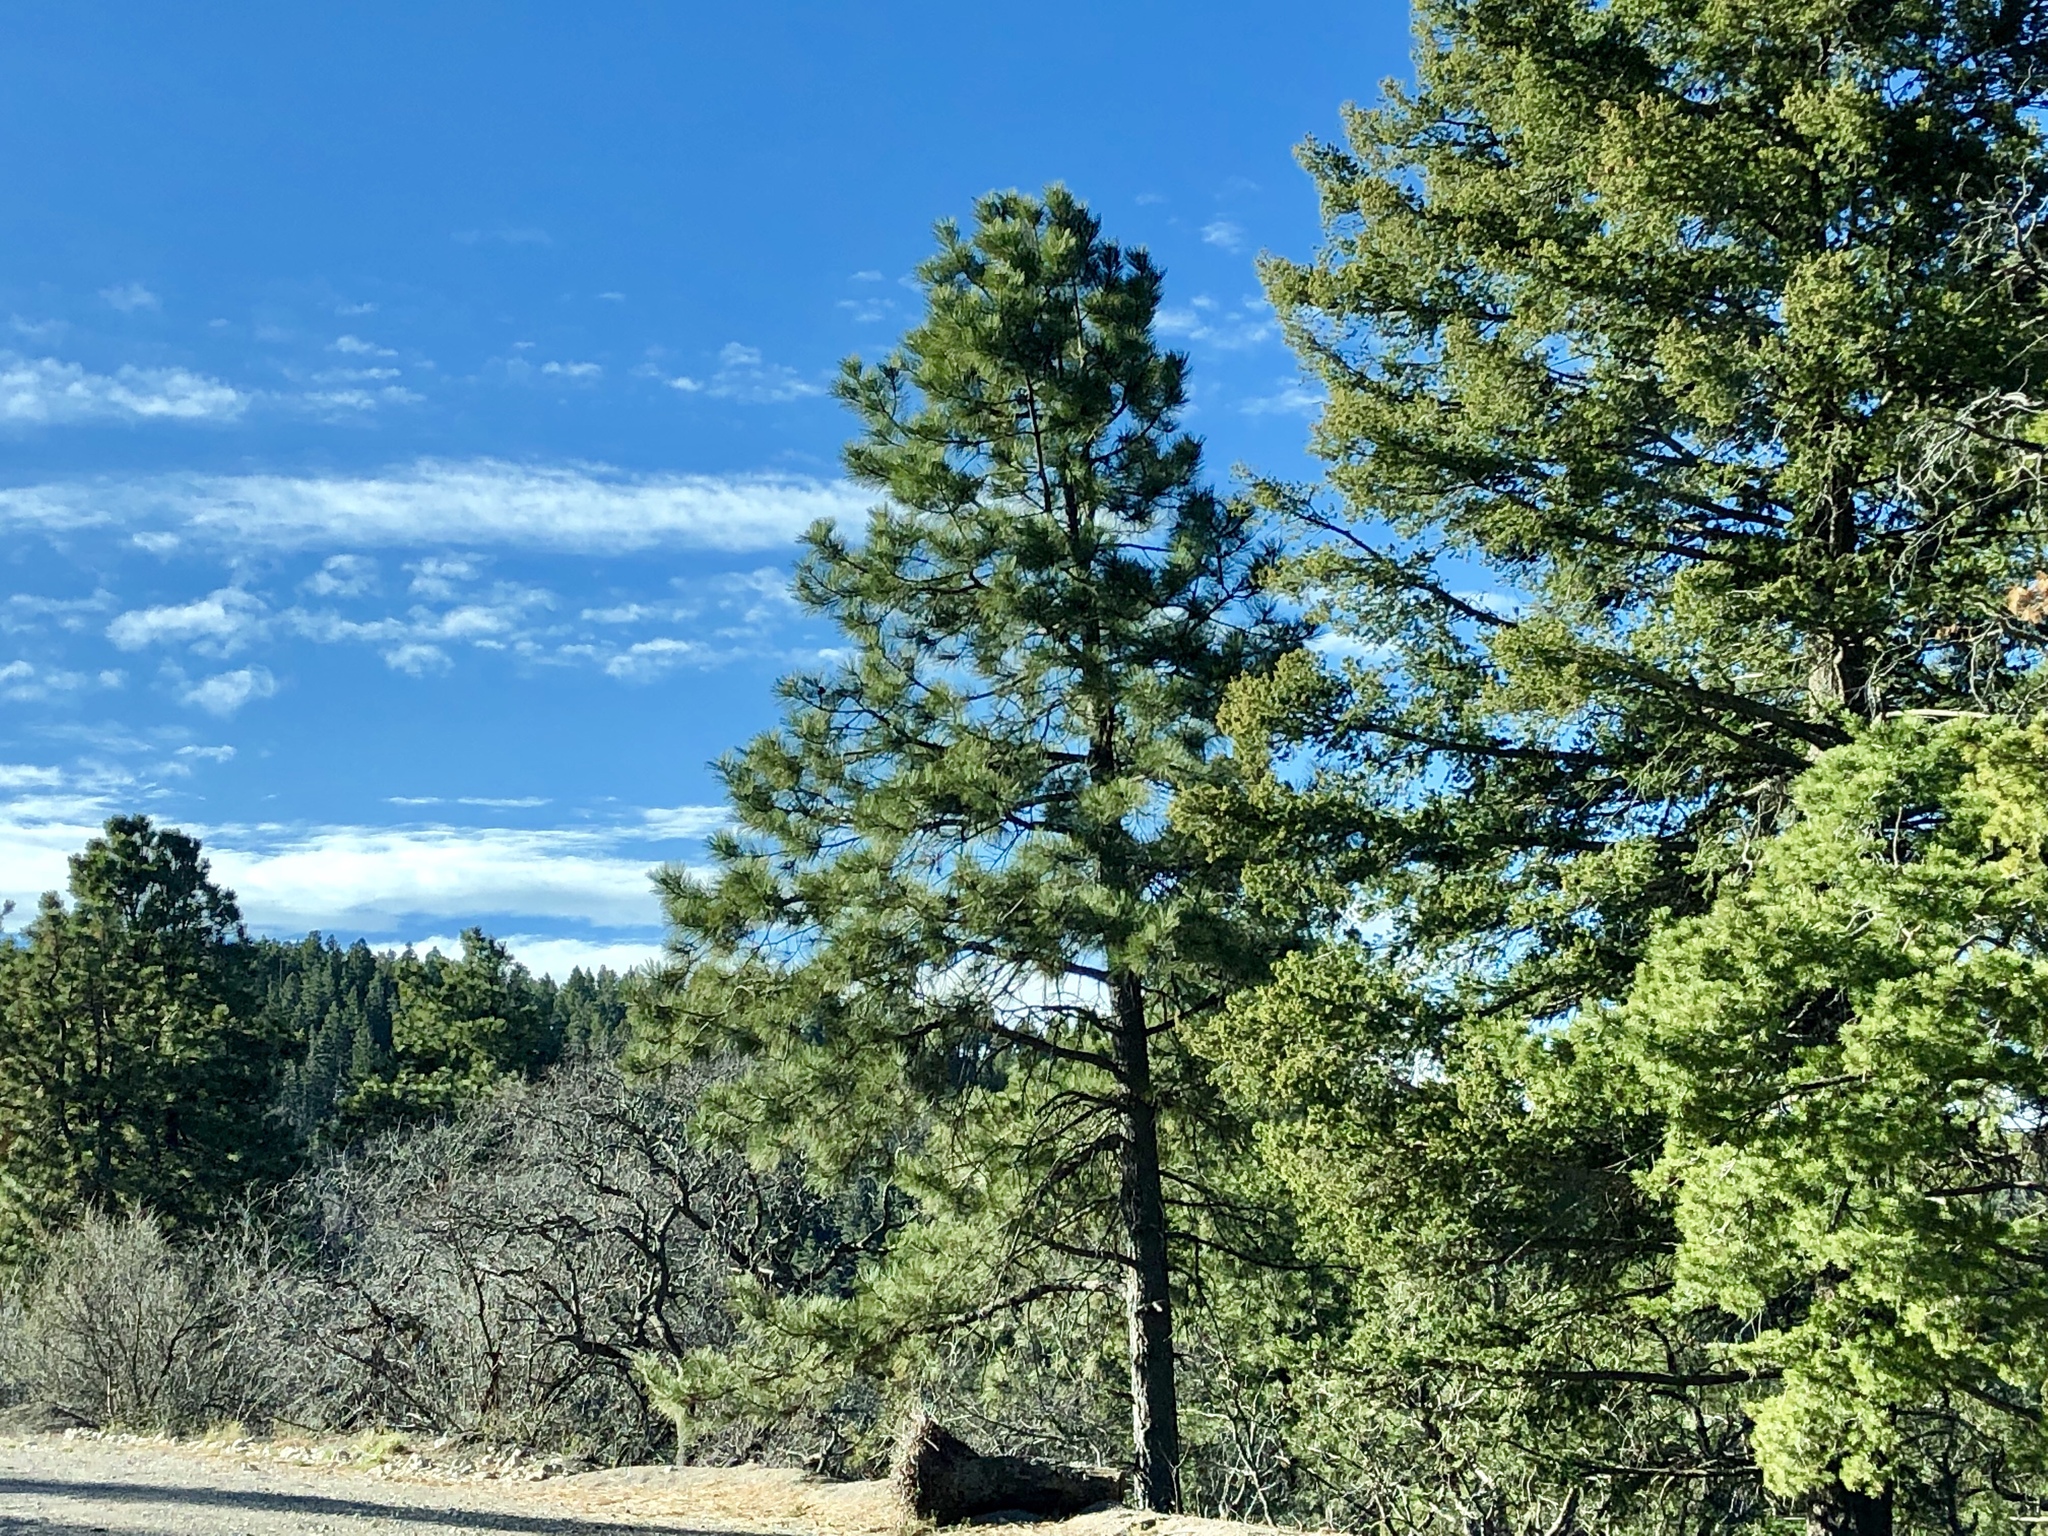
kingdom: Plantae
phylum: Tracheophyta
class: Pinopsida
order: Pinales
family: Pinaceae
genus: Pinus
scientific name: Pinus ponderosa
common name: Western yellow-pine
